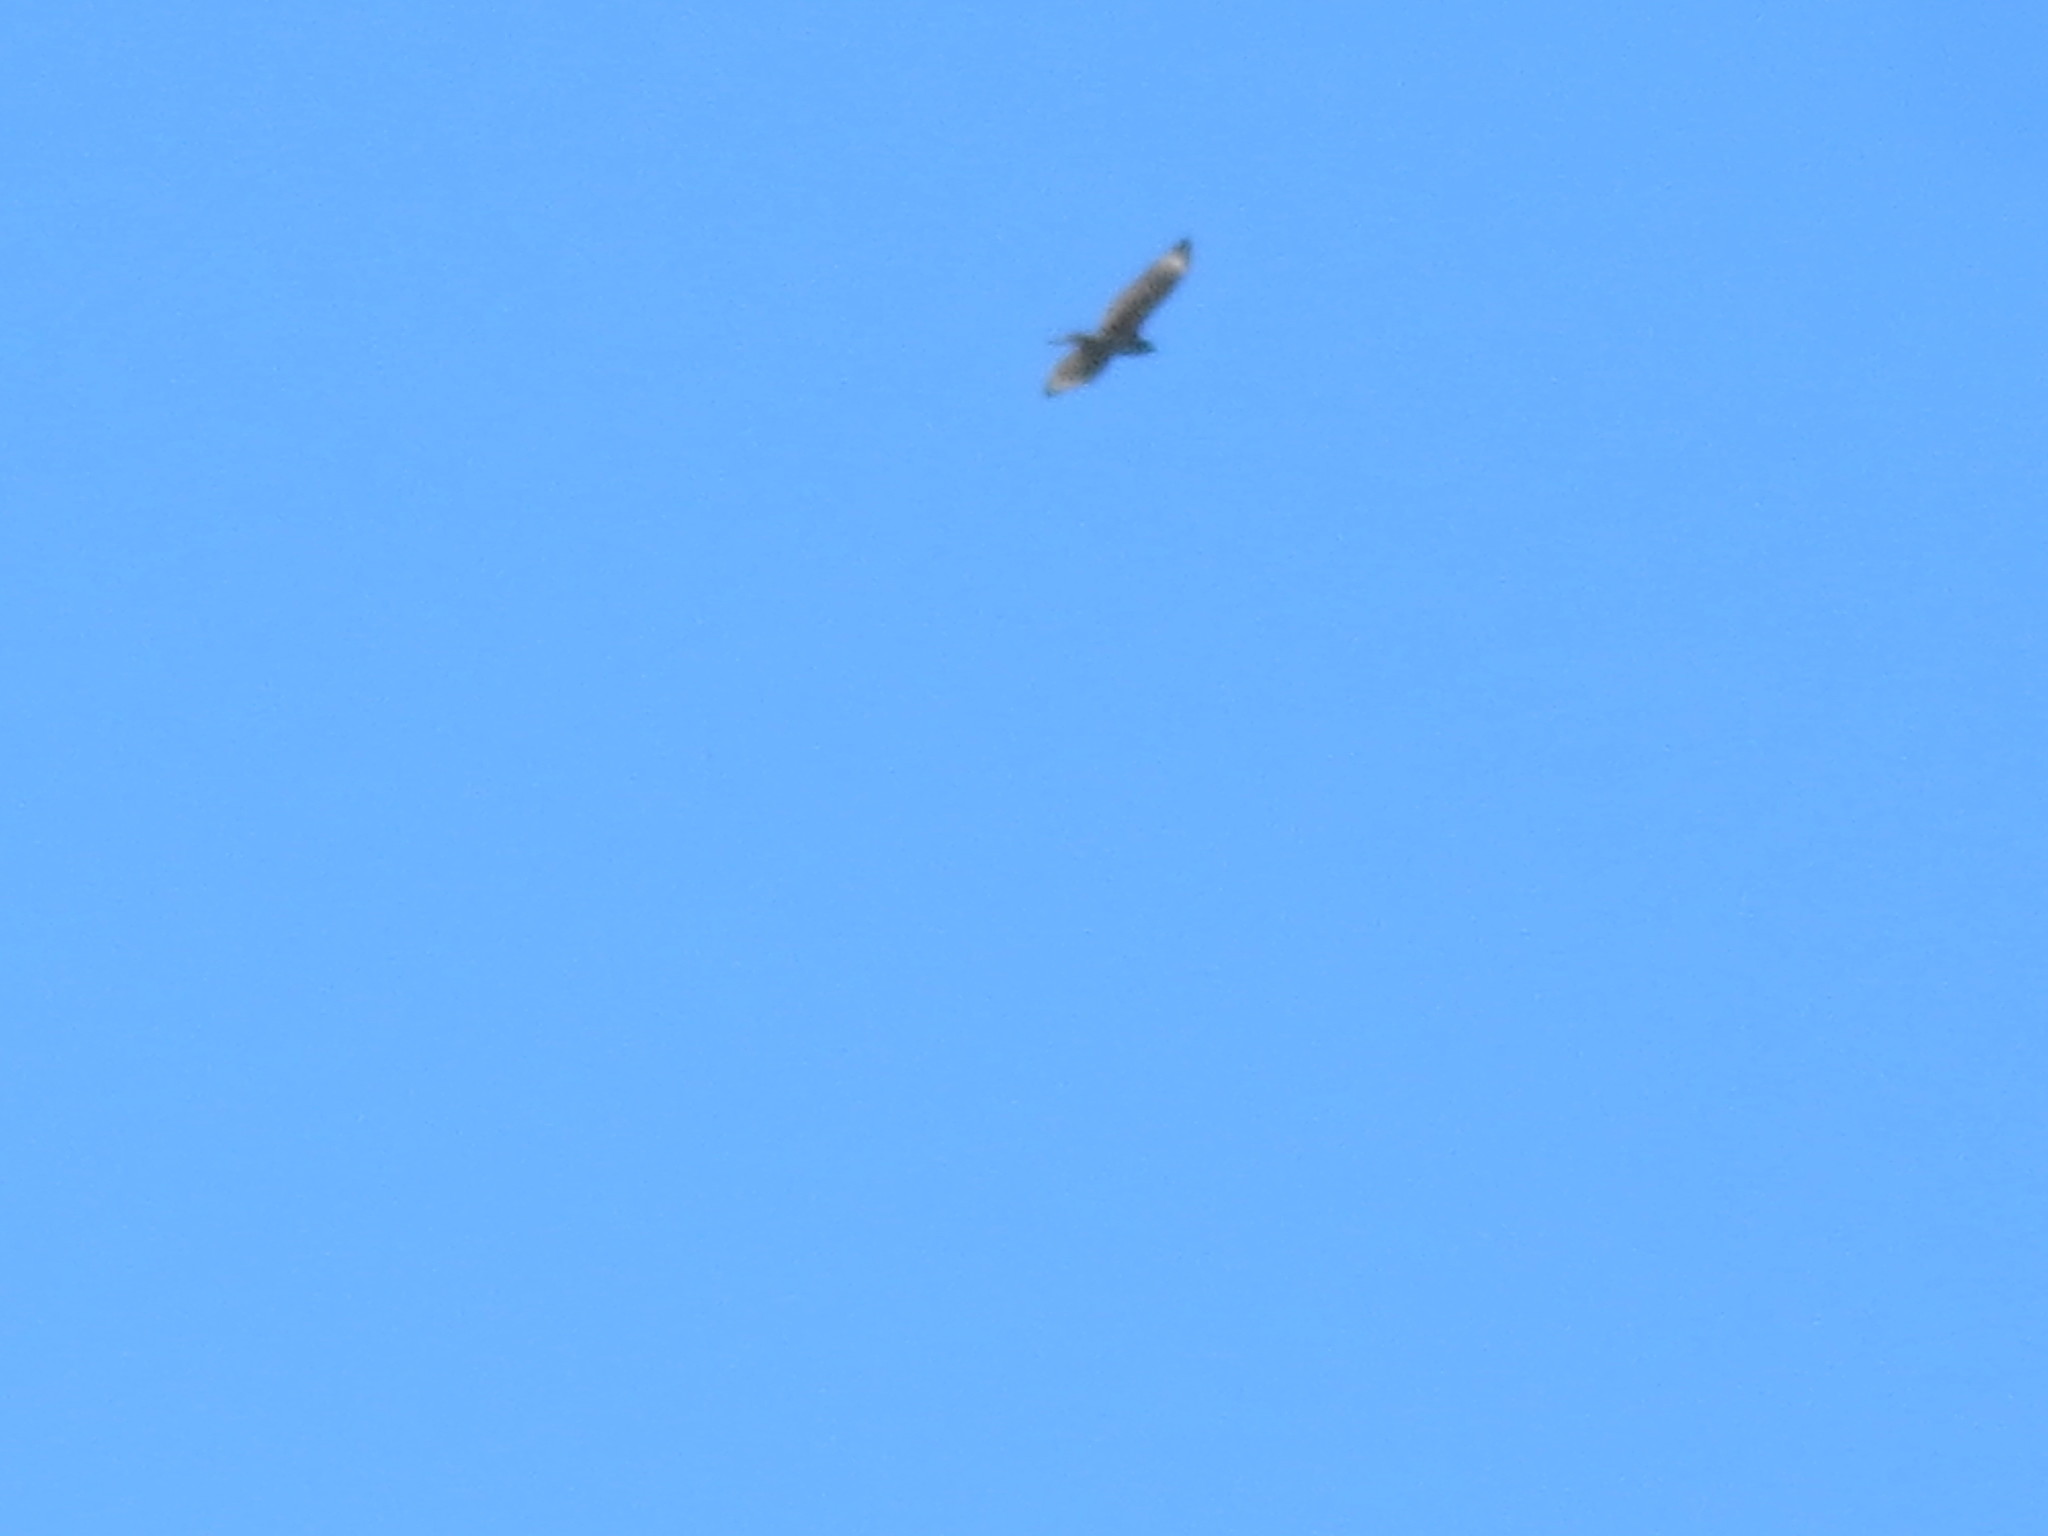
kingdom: Animalia
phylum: Chordata
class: Aves
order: Accipitriformes
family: Accipitridae
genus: Buteo
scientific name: Buteo lineatus
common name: Red-shouldered hawk
